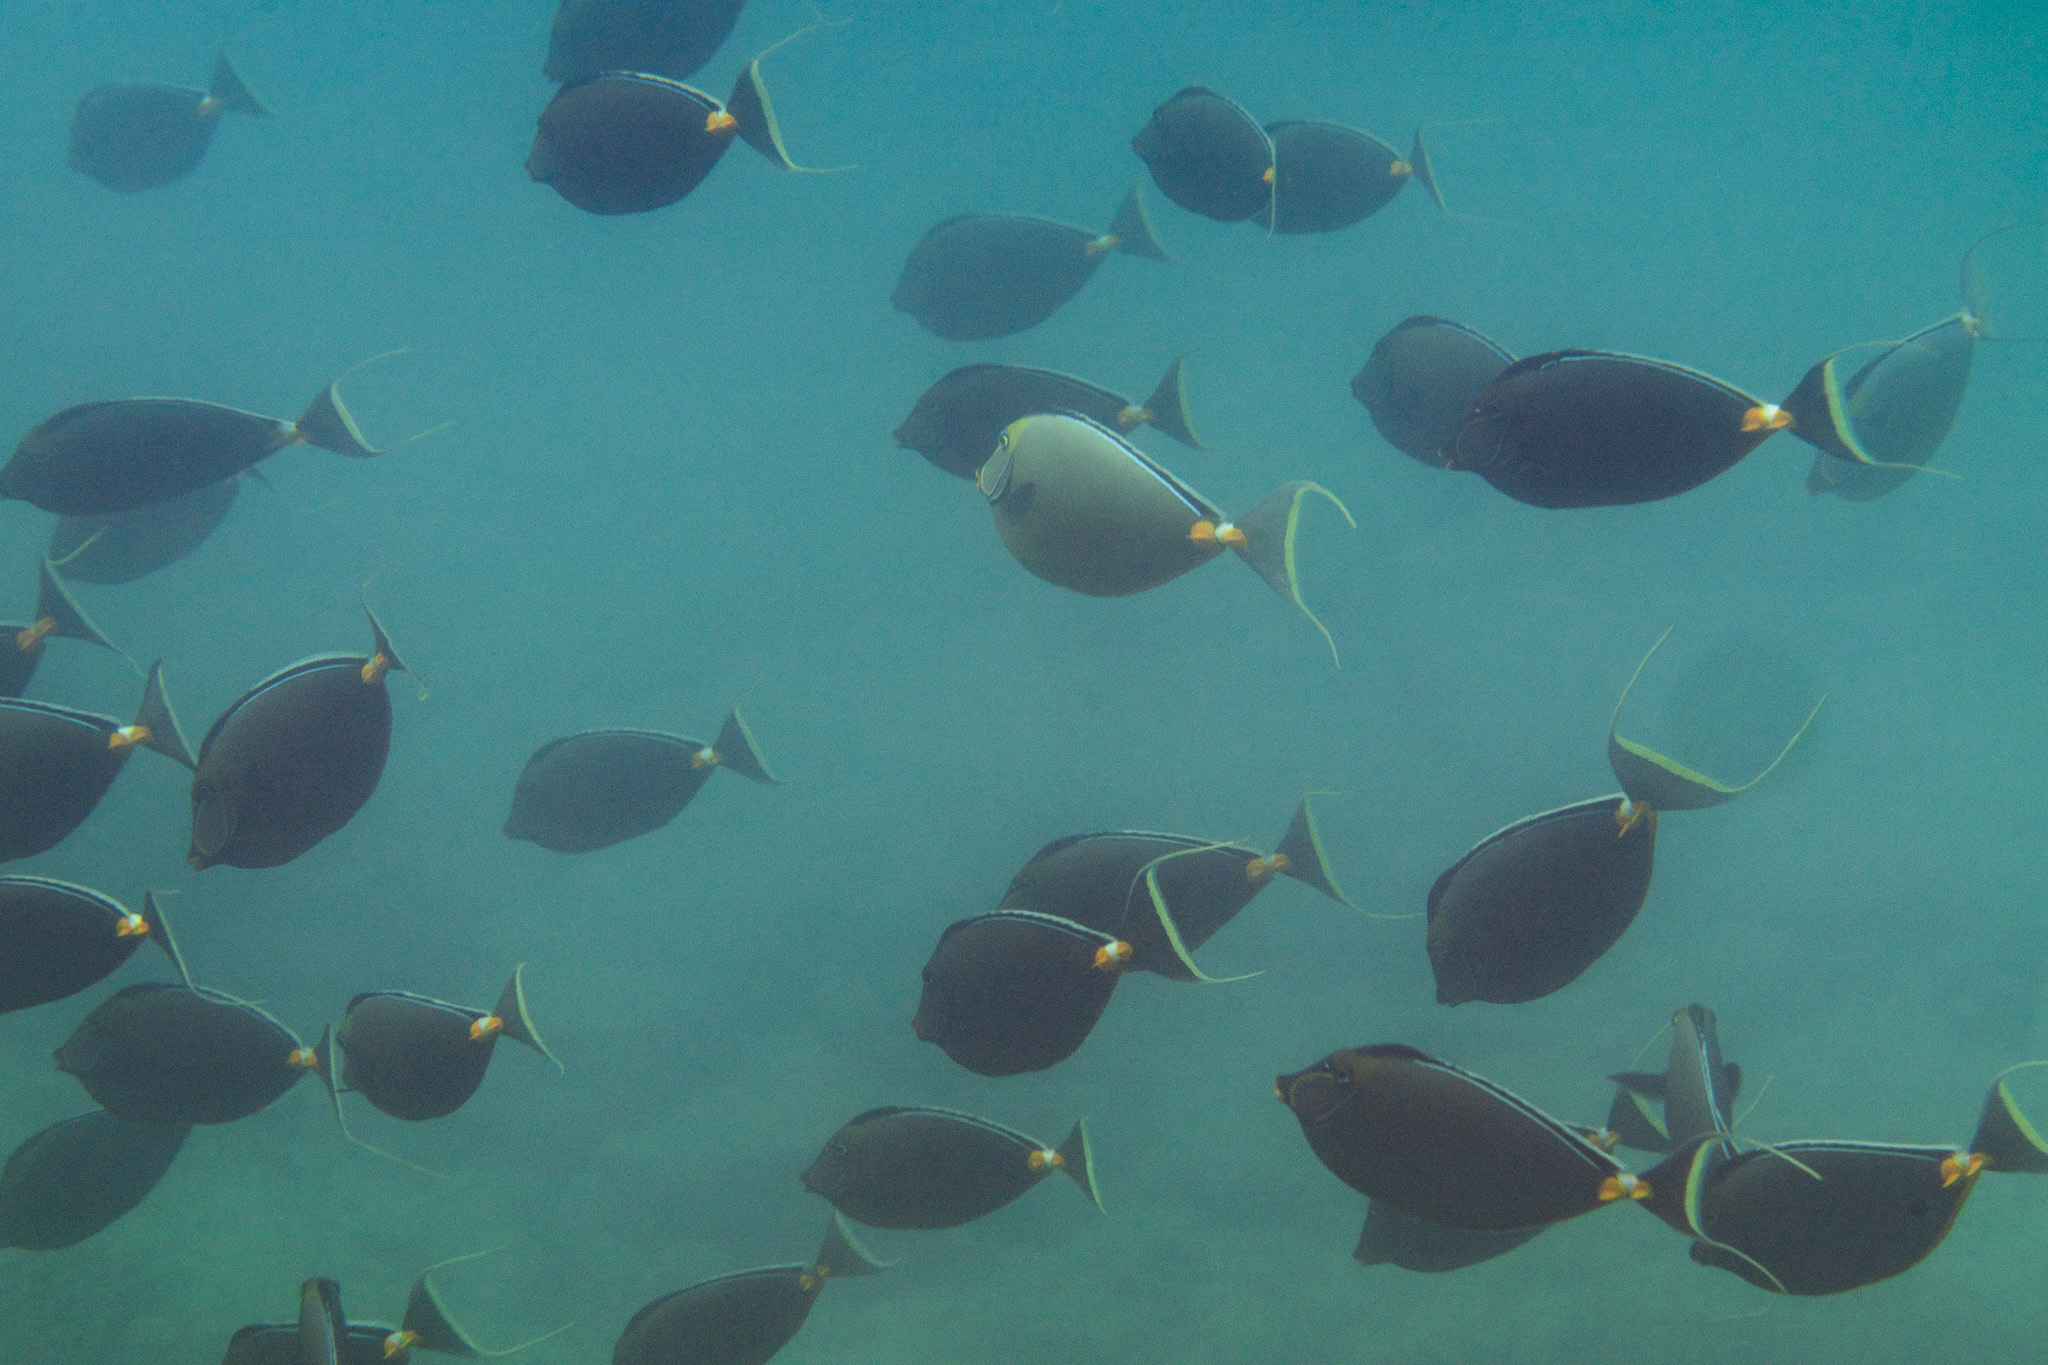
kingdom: Animalia
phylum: Chordata
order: Perciformes
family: Acanthuridae
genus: Naso
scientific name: Naso lituratus
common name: Orangespine unicornfish
